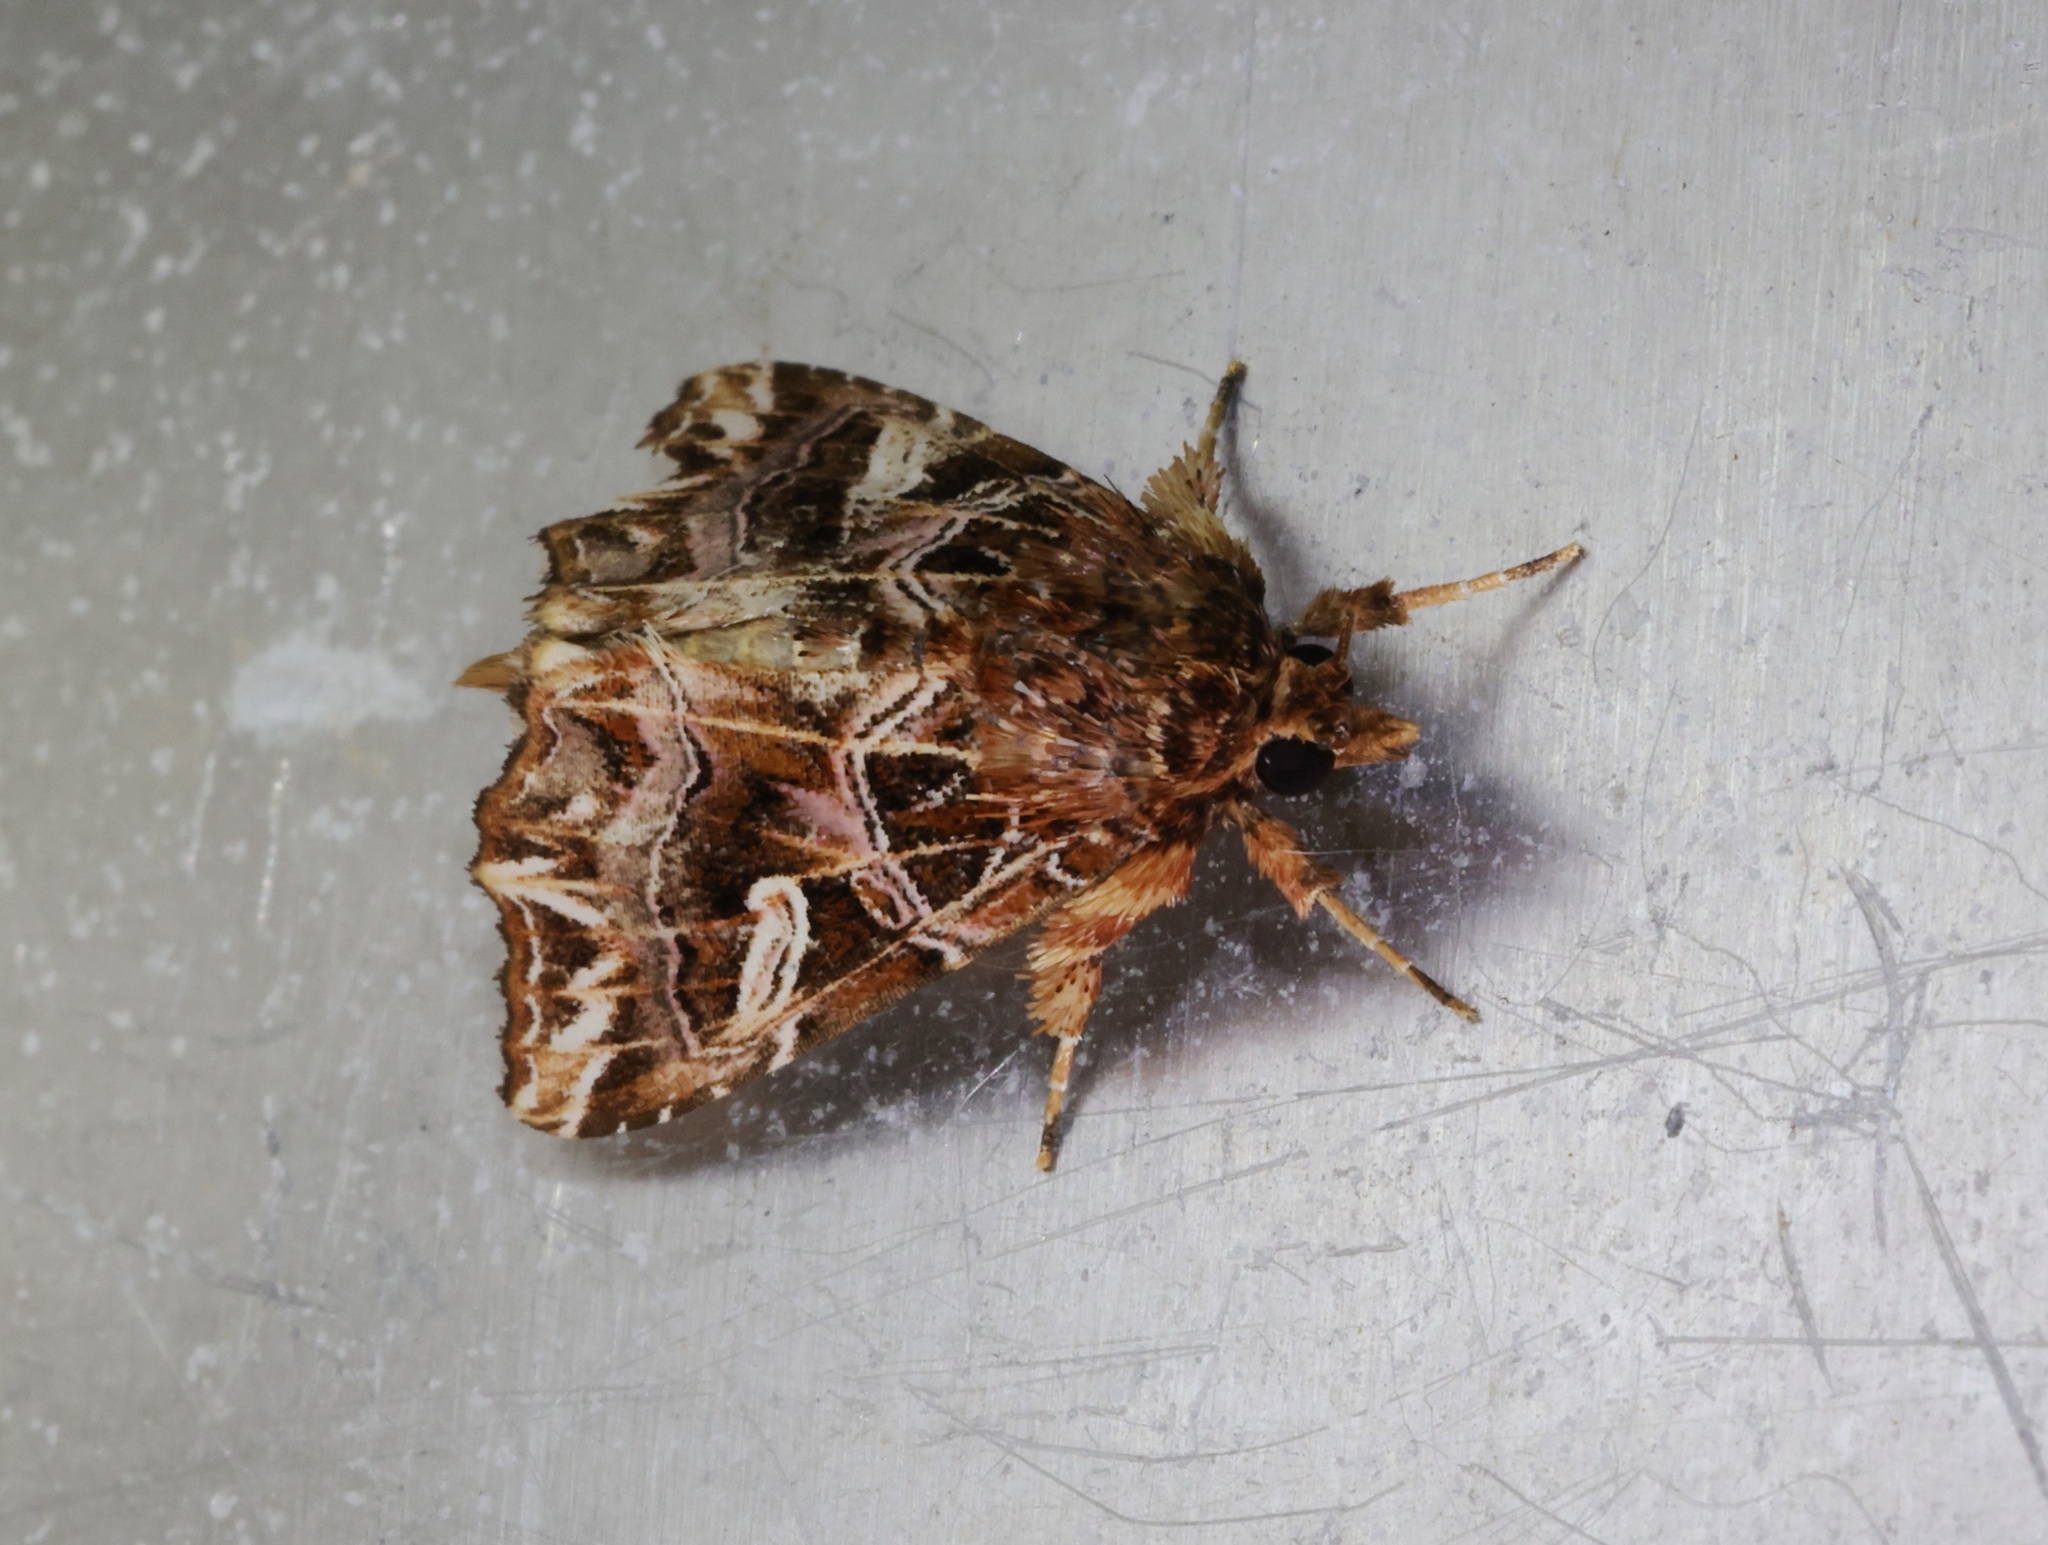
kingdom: Animalia
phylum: Arthropoda
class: Insecta
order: Lepidoptera
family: Noctuidae
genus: Callopistria
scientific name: Callopistria exotica
